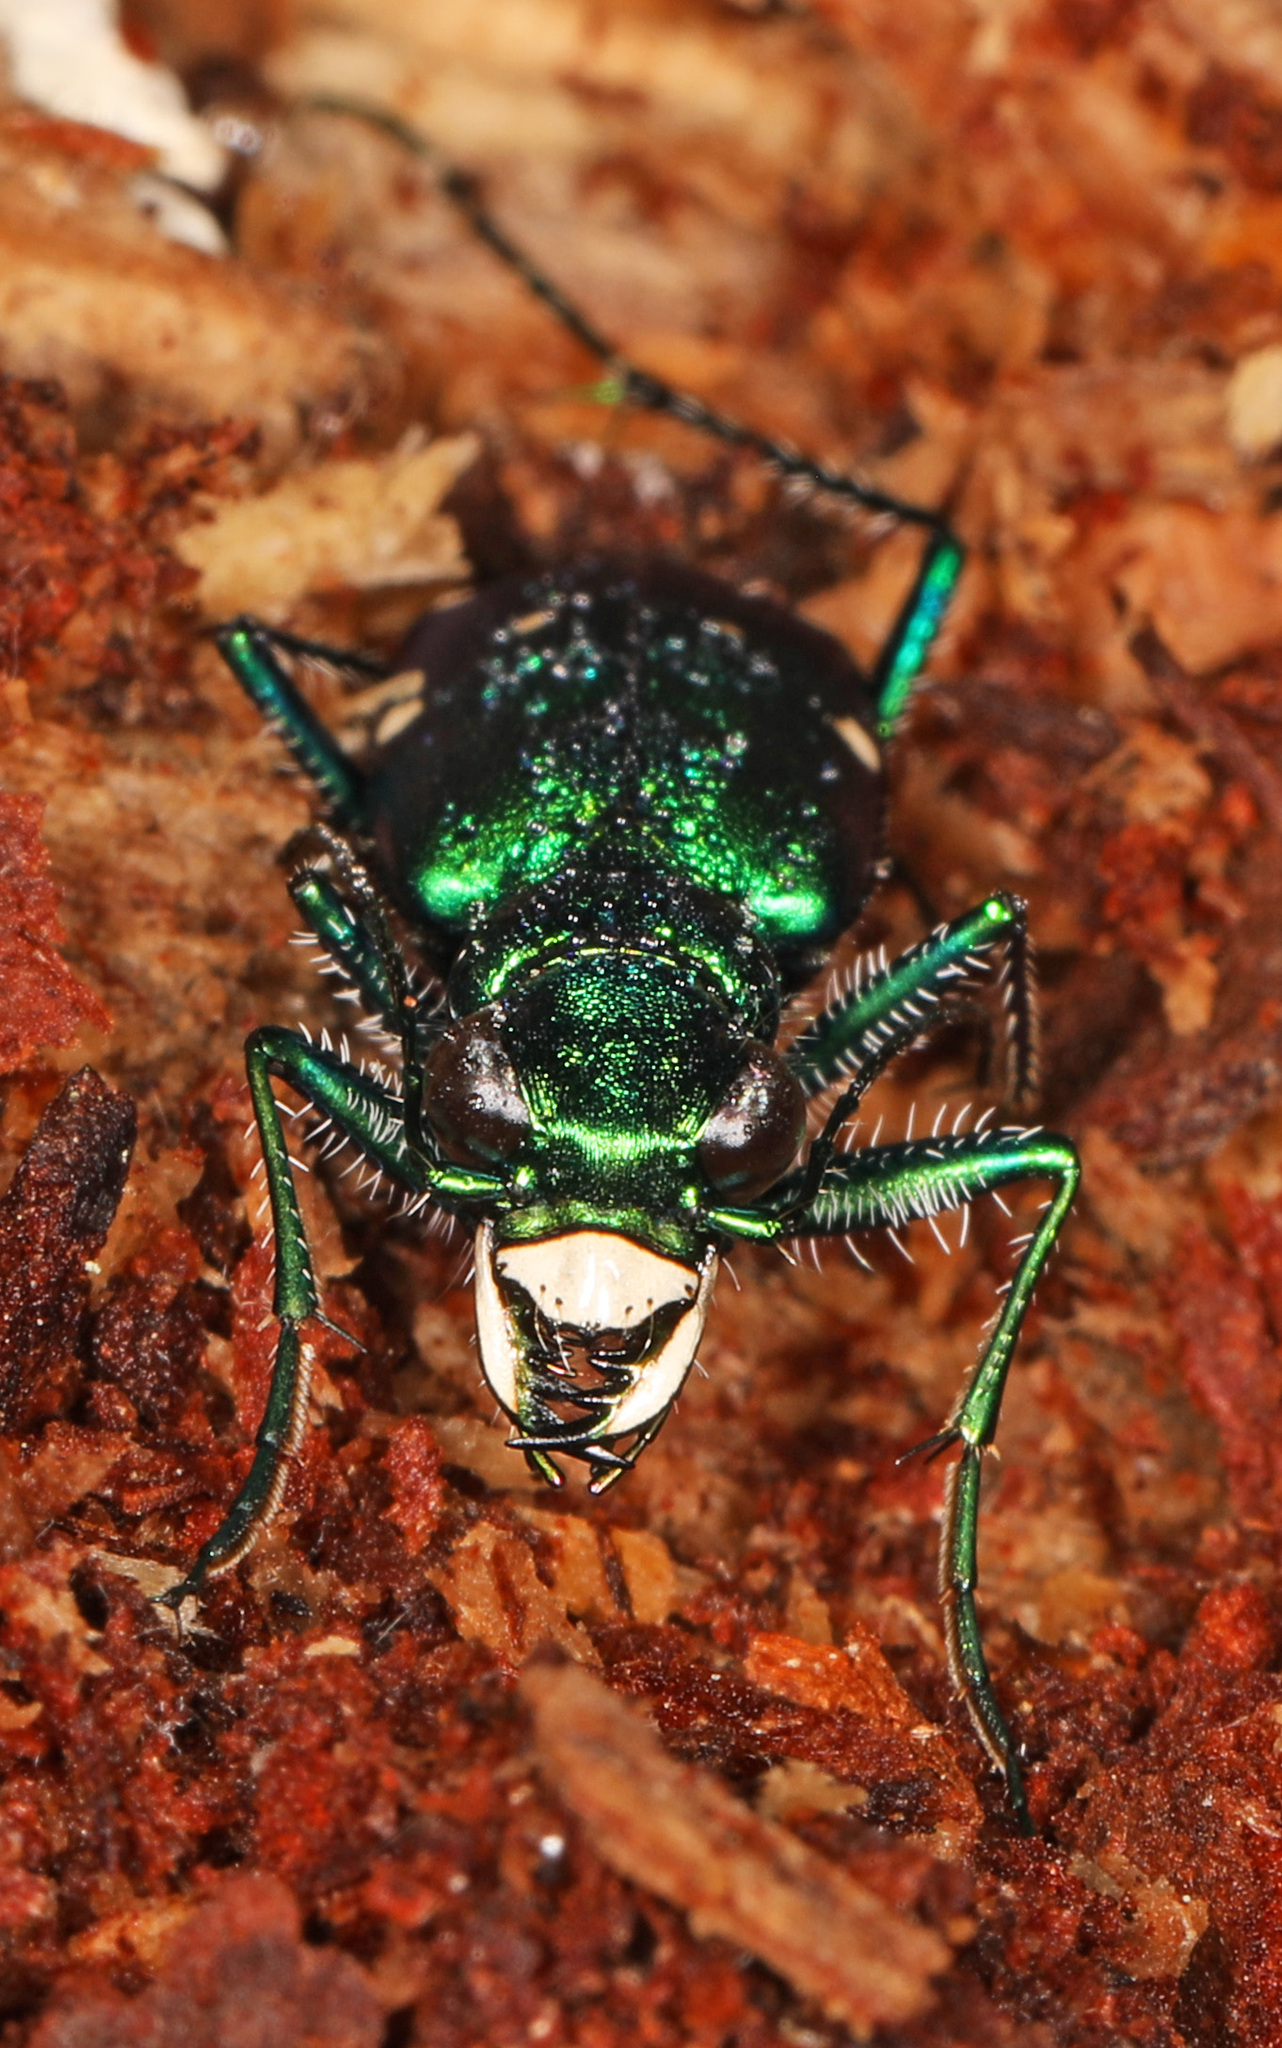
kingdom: Animalia
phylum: Arthropoda
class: Insecta
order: Coleoptera
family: Carabidae
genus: Cicindela
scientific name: Cicindela sexguttata
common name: Six-spotted tiger beetle
